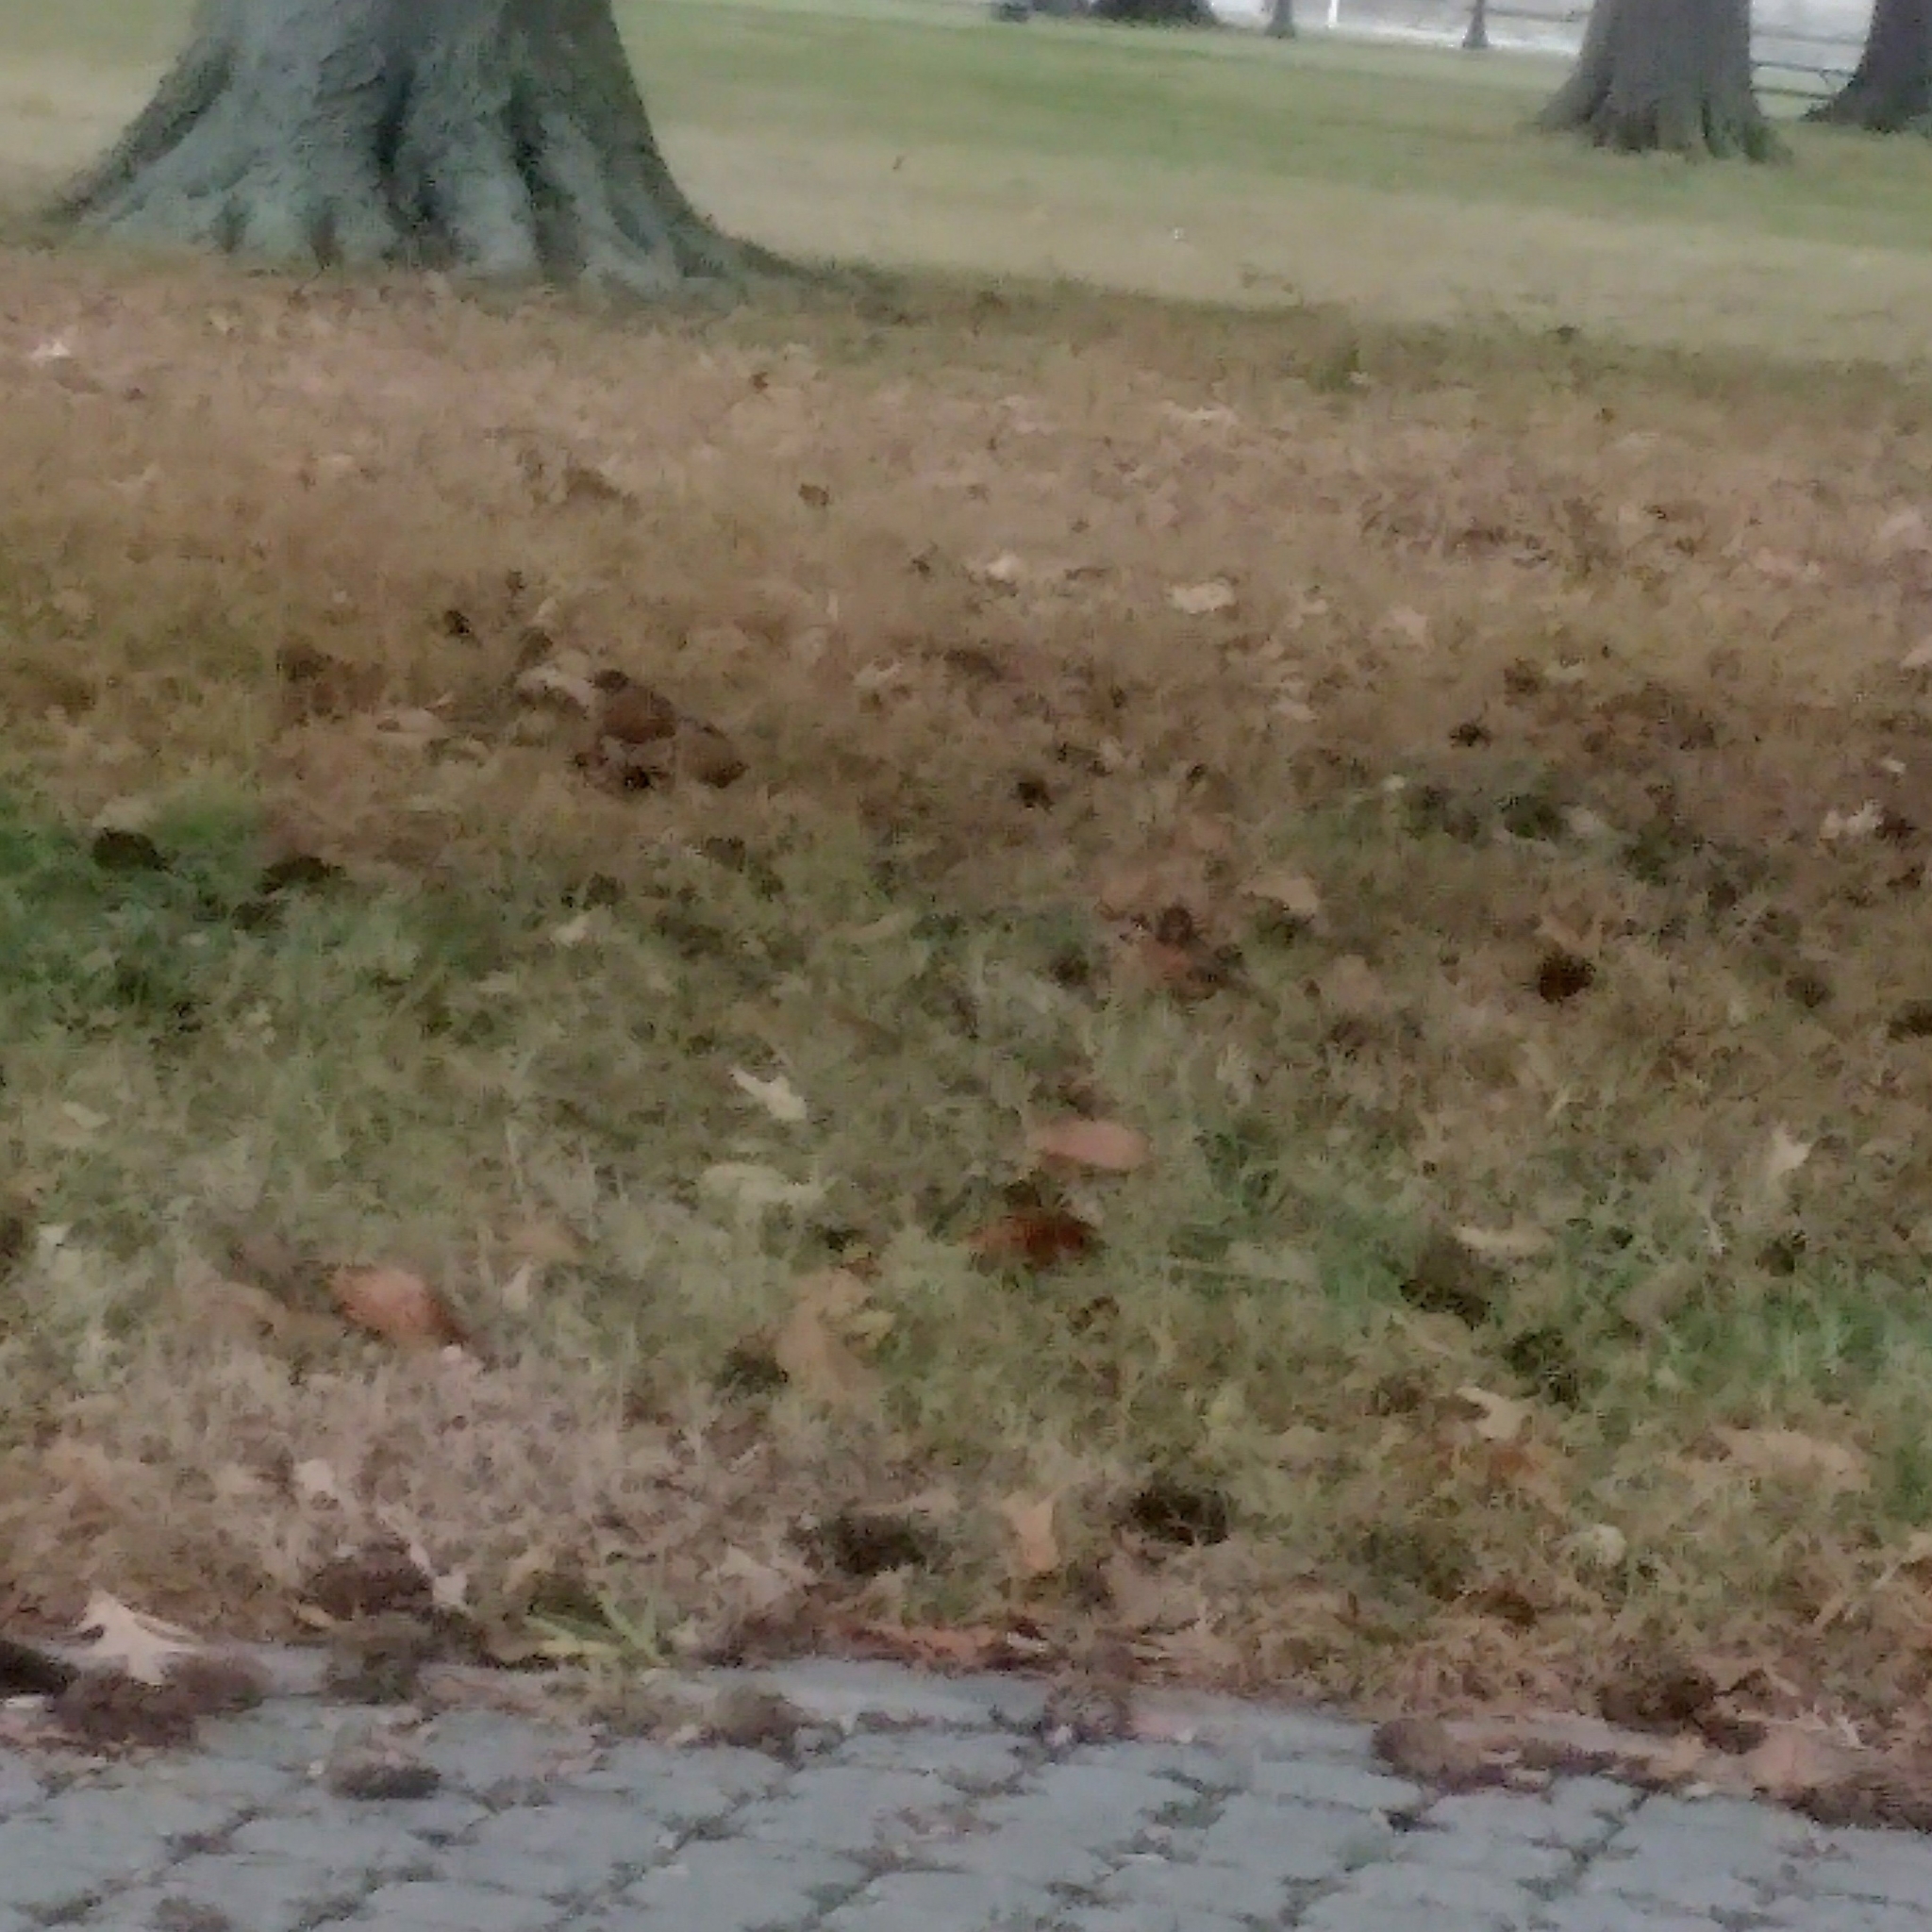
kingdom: Animalia
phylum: Chordata
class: Aves
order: Passeriformes
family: Turdidae
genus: Turdus
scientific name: Turdus migratorius
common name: American robin
